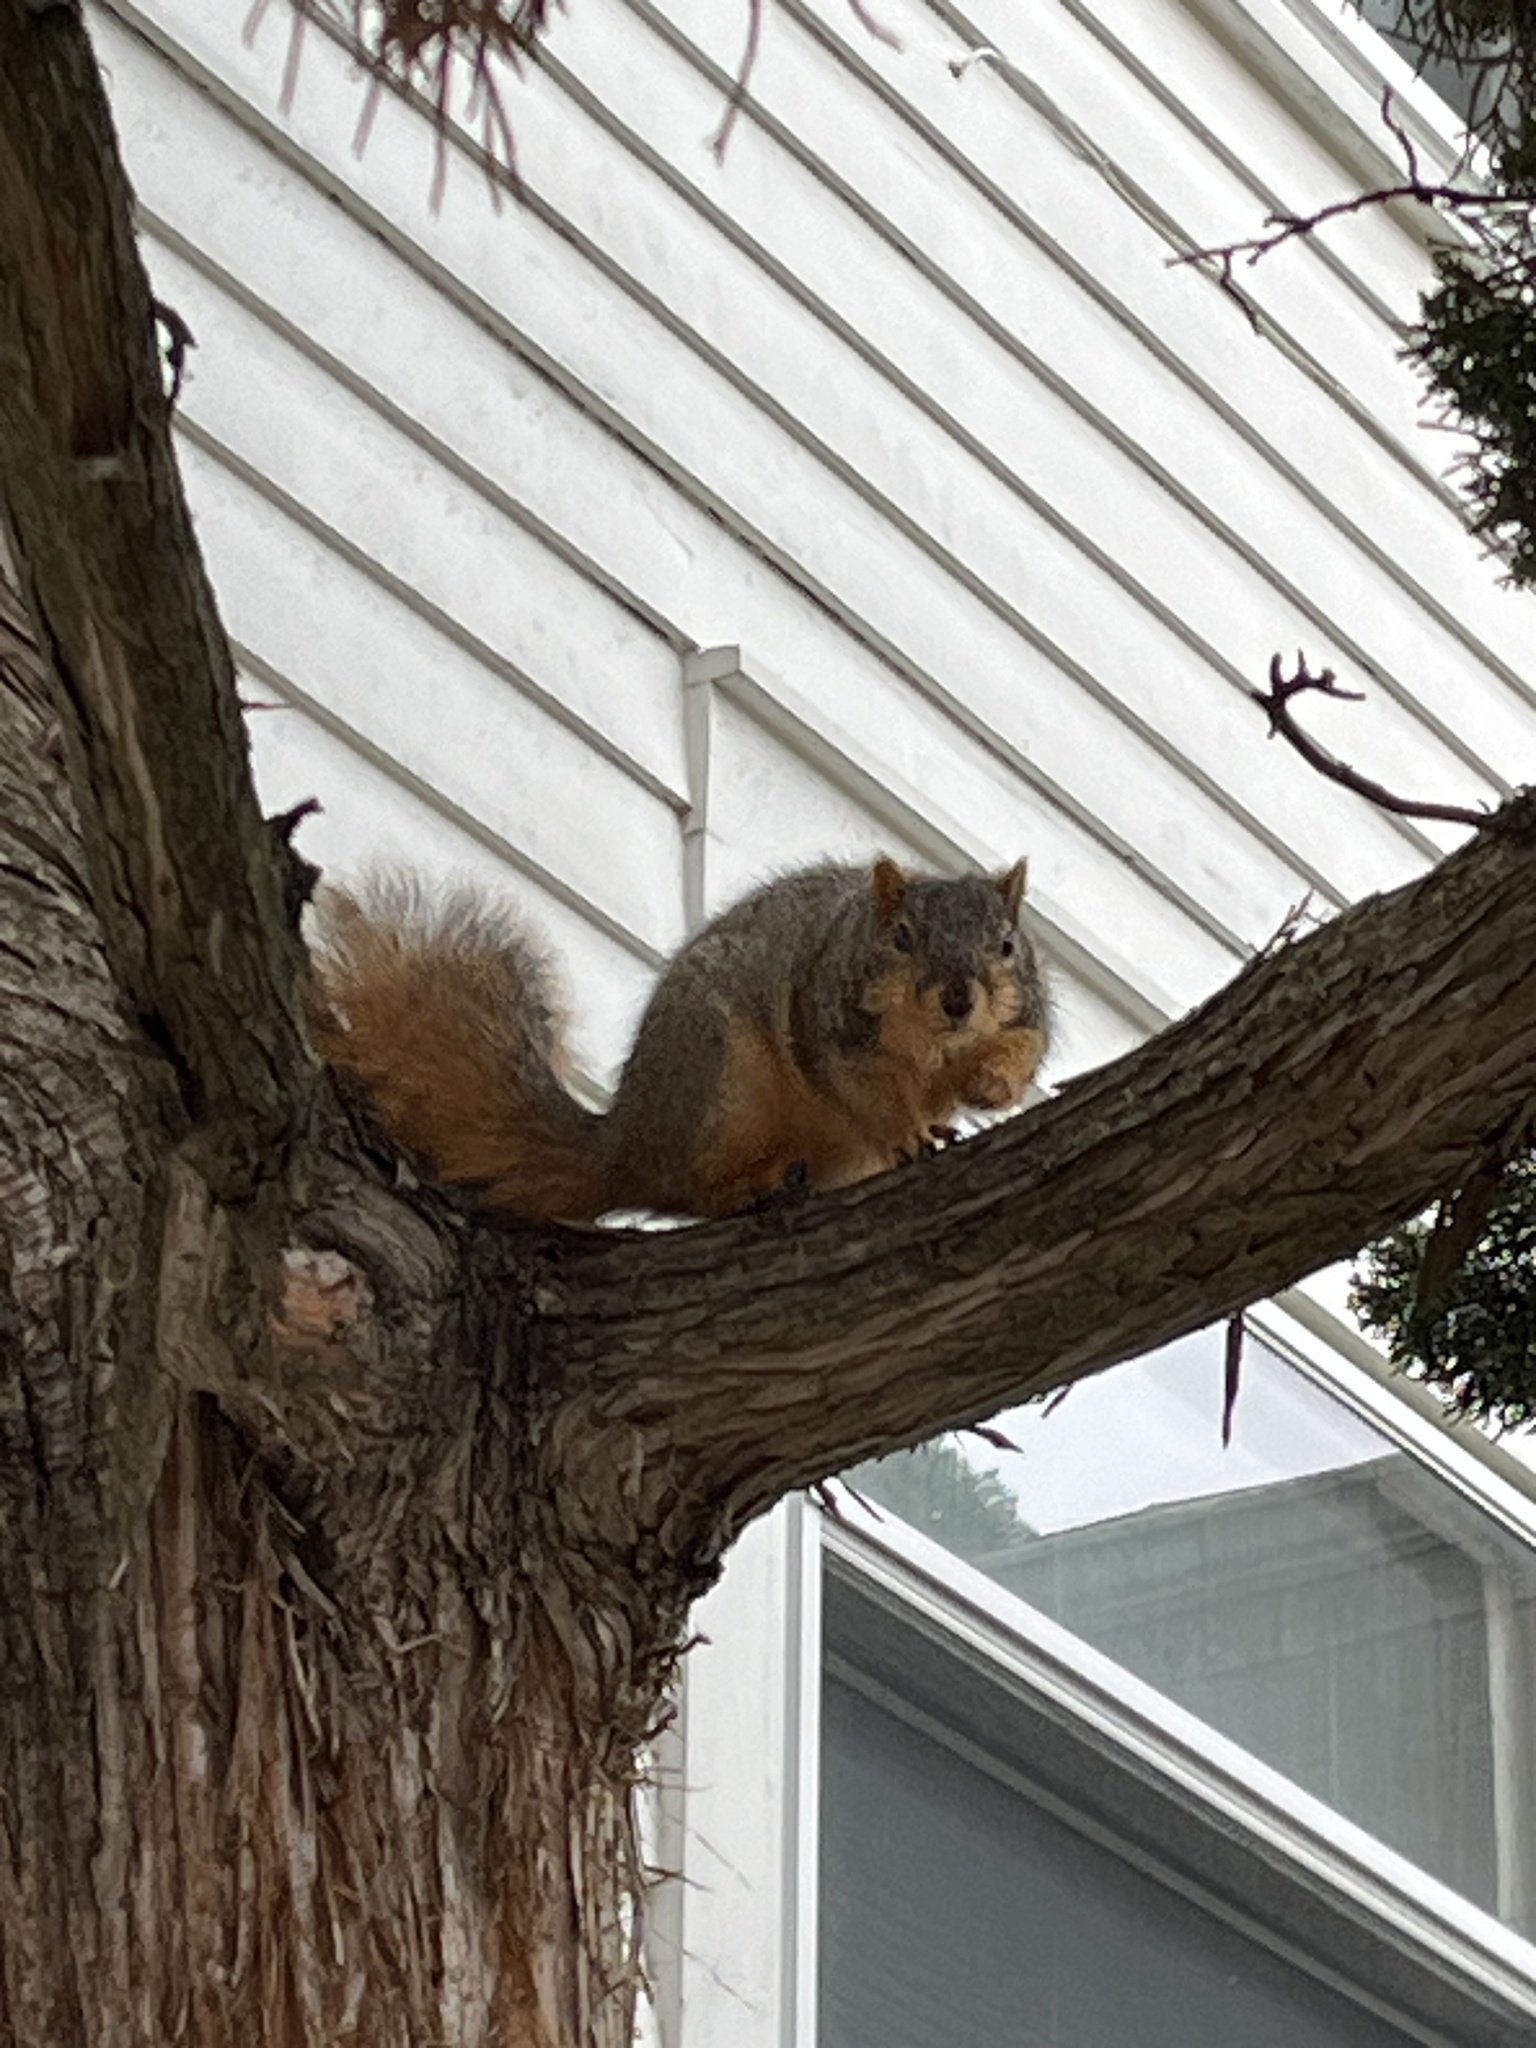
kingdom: Animalia
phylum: Chordata
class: Mammalia
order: Rodentia
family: Sciuridae
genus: Sciurus
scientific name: Sciurus niger
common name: Fox squirrel
